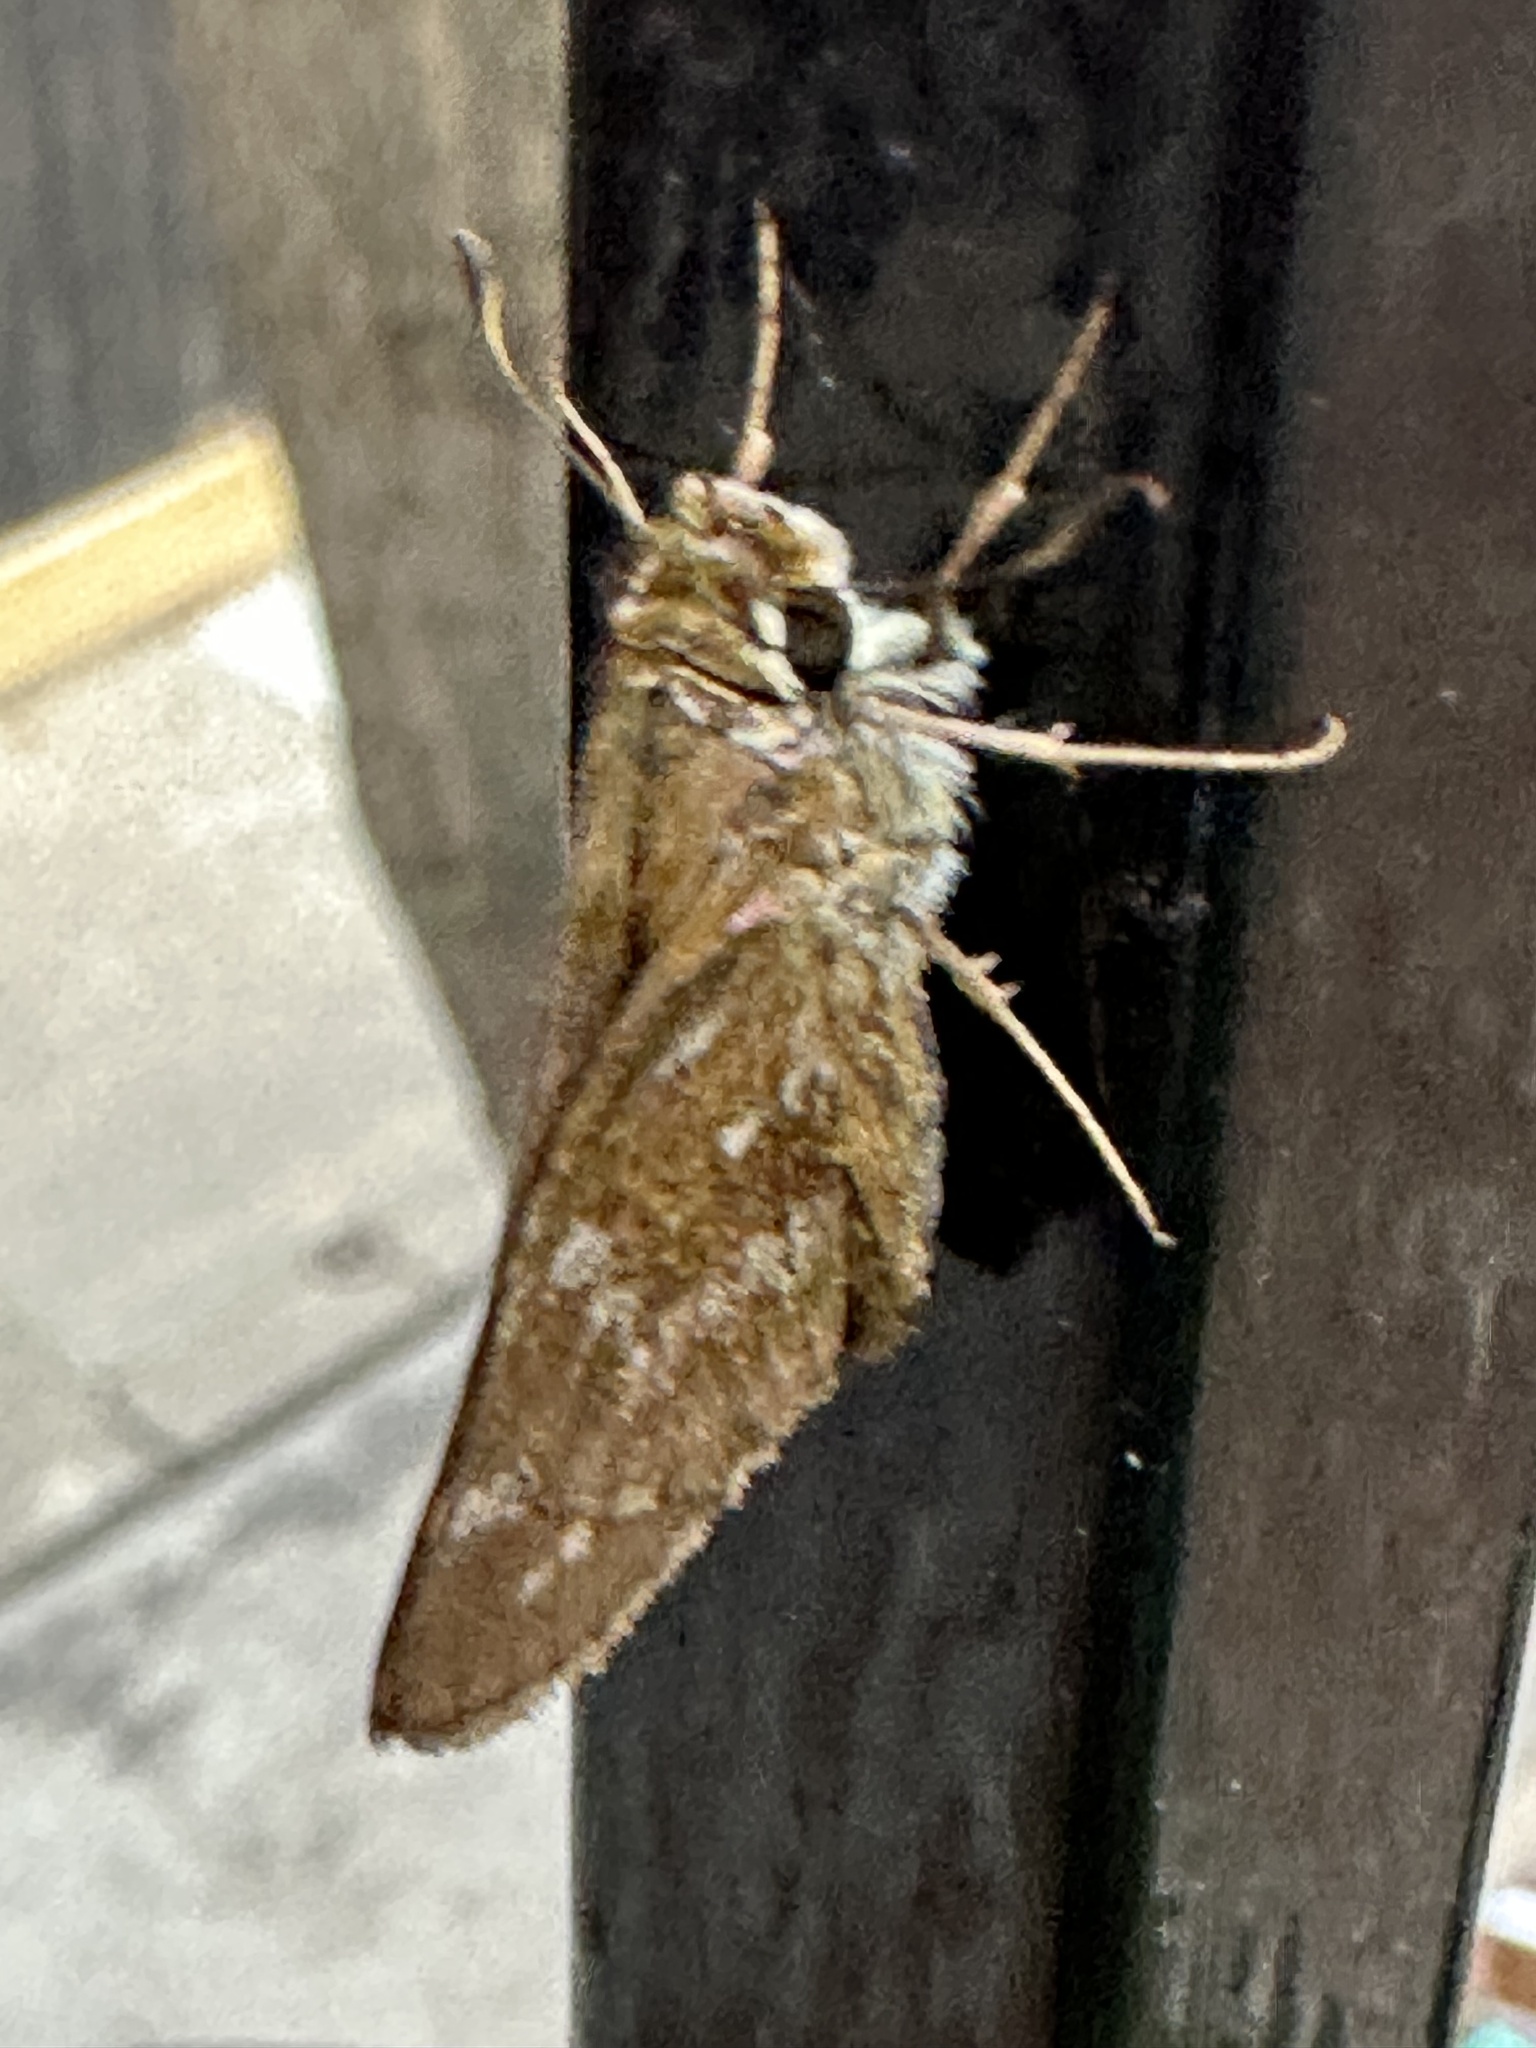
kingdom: Animalia
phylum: Arthropoda
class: Insecta
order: Lepidoptera
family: Hesperiidae
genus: Atalopedes
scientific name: Atalopedes
